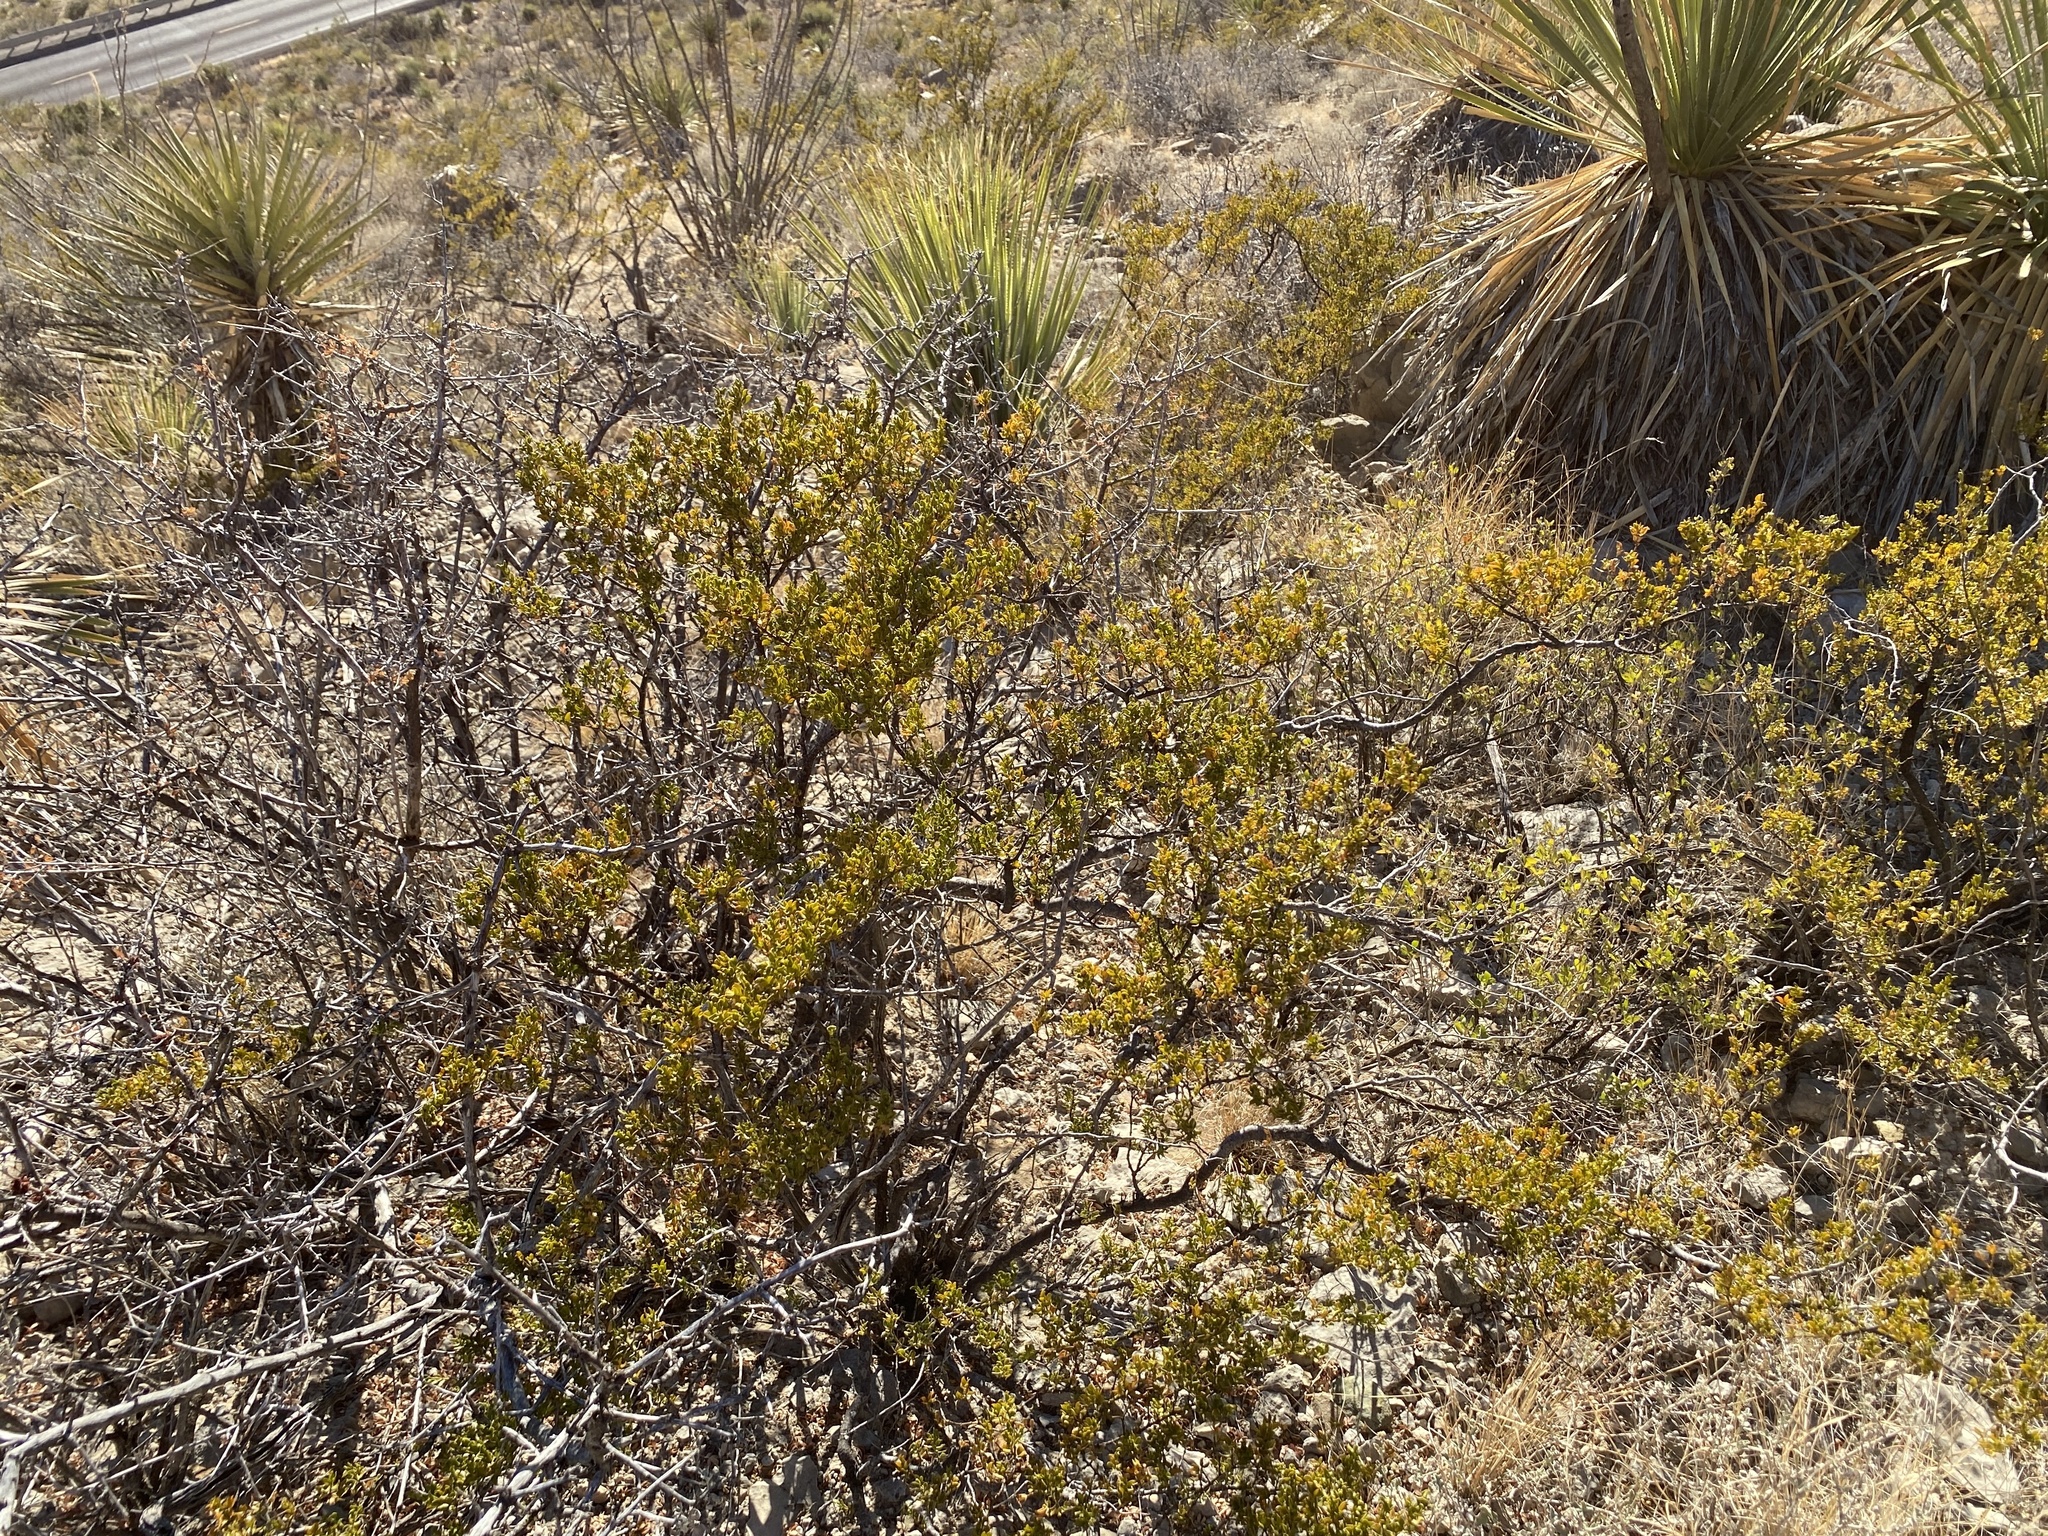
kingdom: Plantae
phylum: Tracheophyta
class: Magnoliopsida
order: Zygophyllales
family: Zygophyllaceae
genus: Larrea
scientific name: Larrea tridentata
